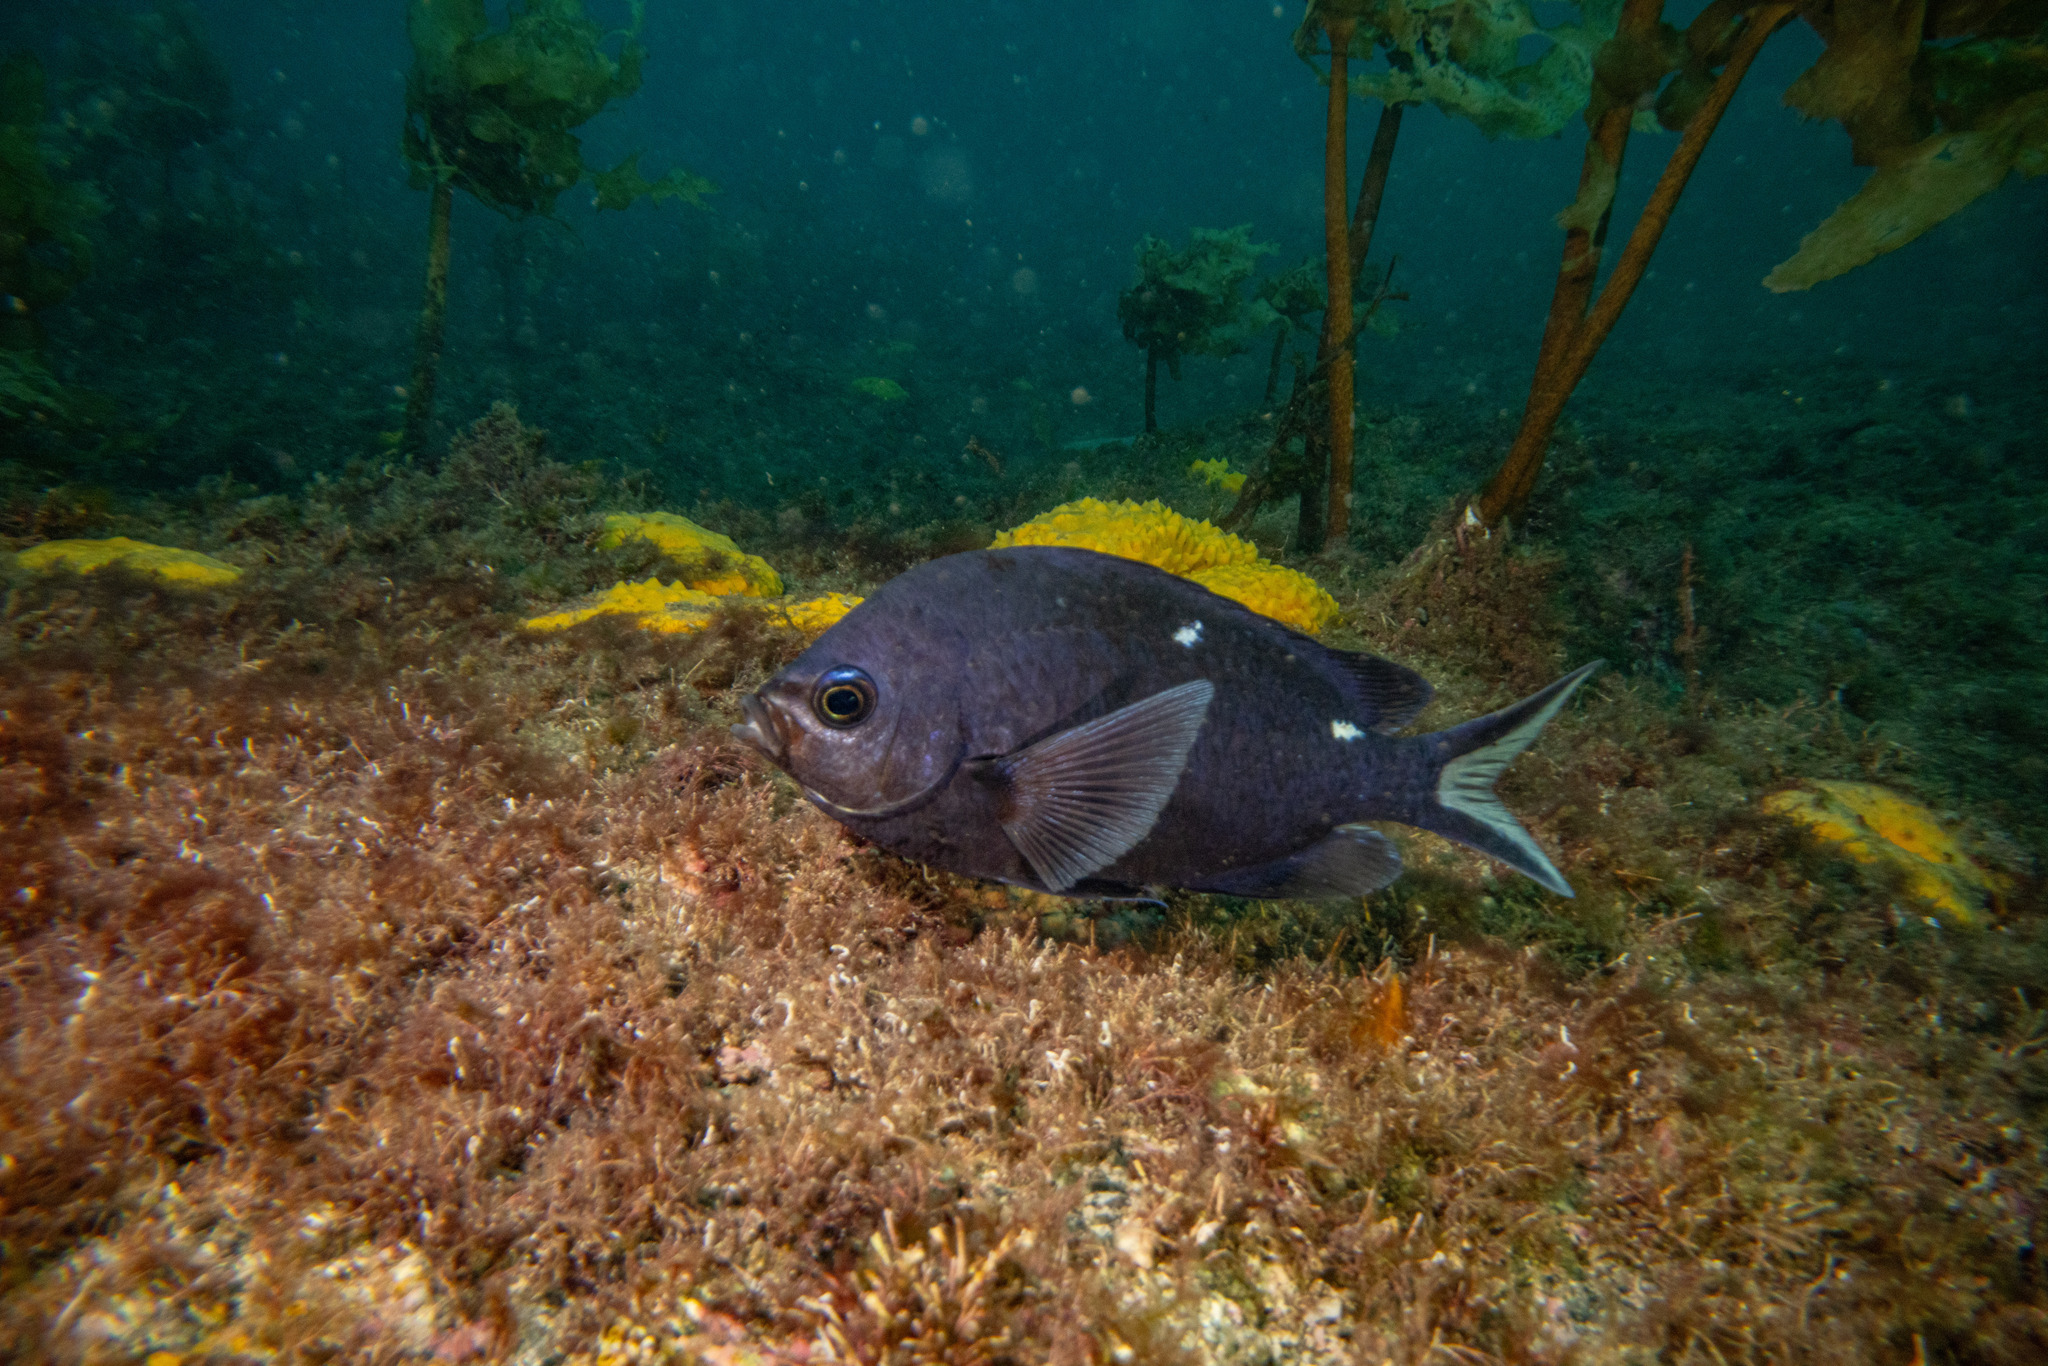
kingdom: Animalia
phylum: Chordata
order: Perciformes
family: Pomacentridae
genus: Chromis
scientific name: Chromis dispilus
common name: Demoiselle
